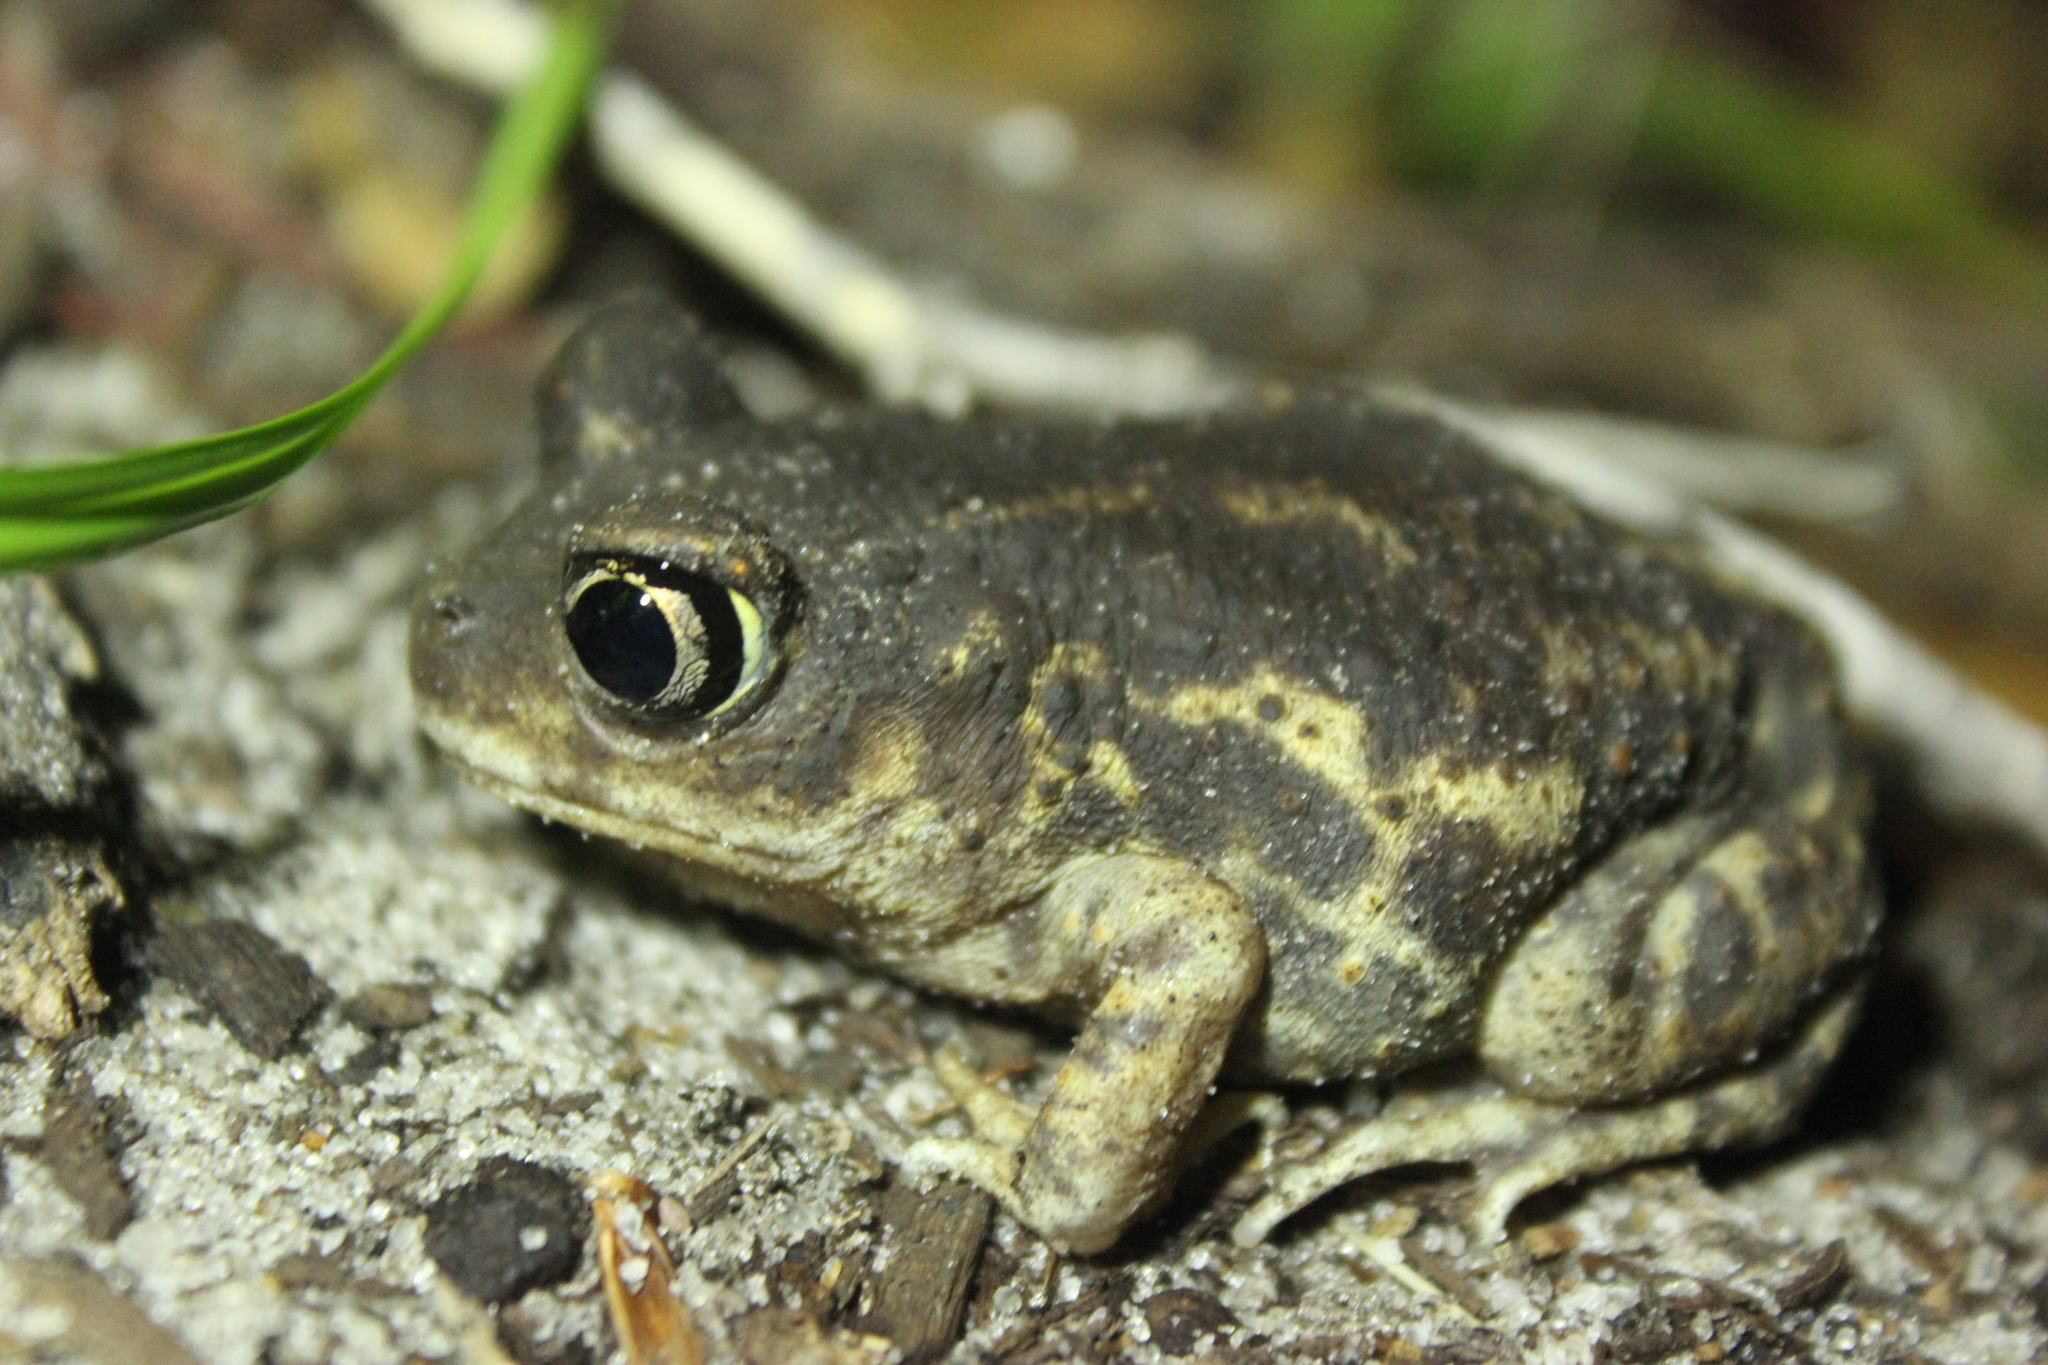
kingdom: Animalia
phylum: Chordata
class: Amphibia
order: Anura
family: Scaphiopodidae
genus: Scaphiopus
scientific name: Scaphiopus holbrookii
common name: Eastern spadefoot toad
